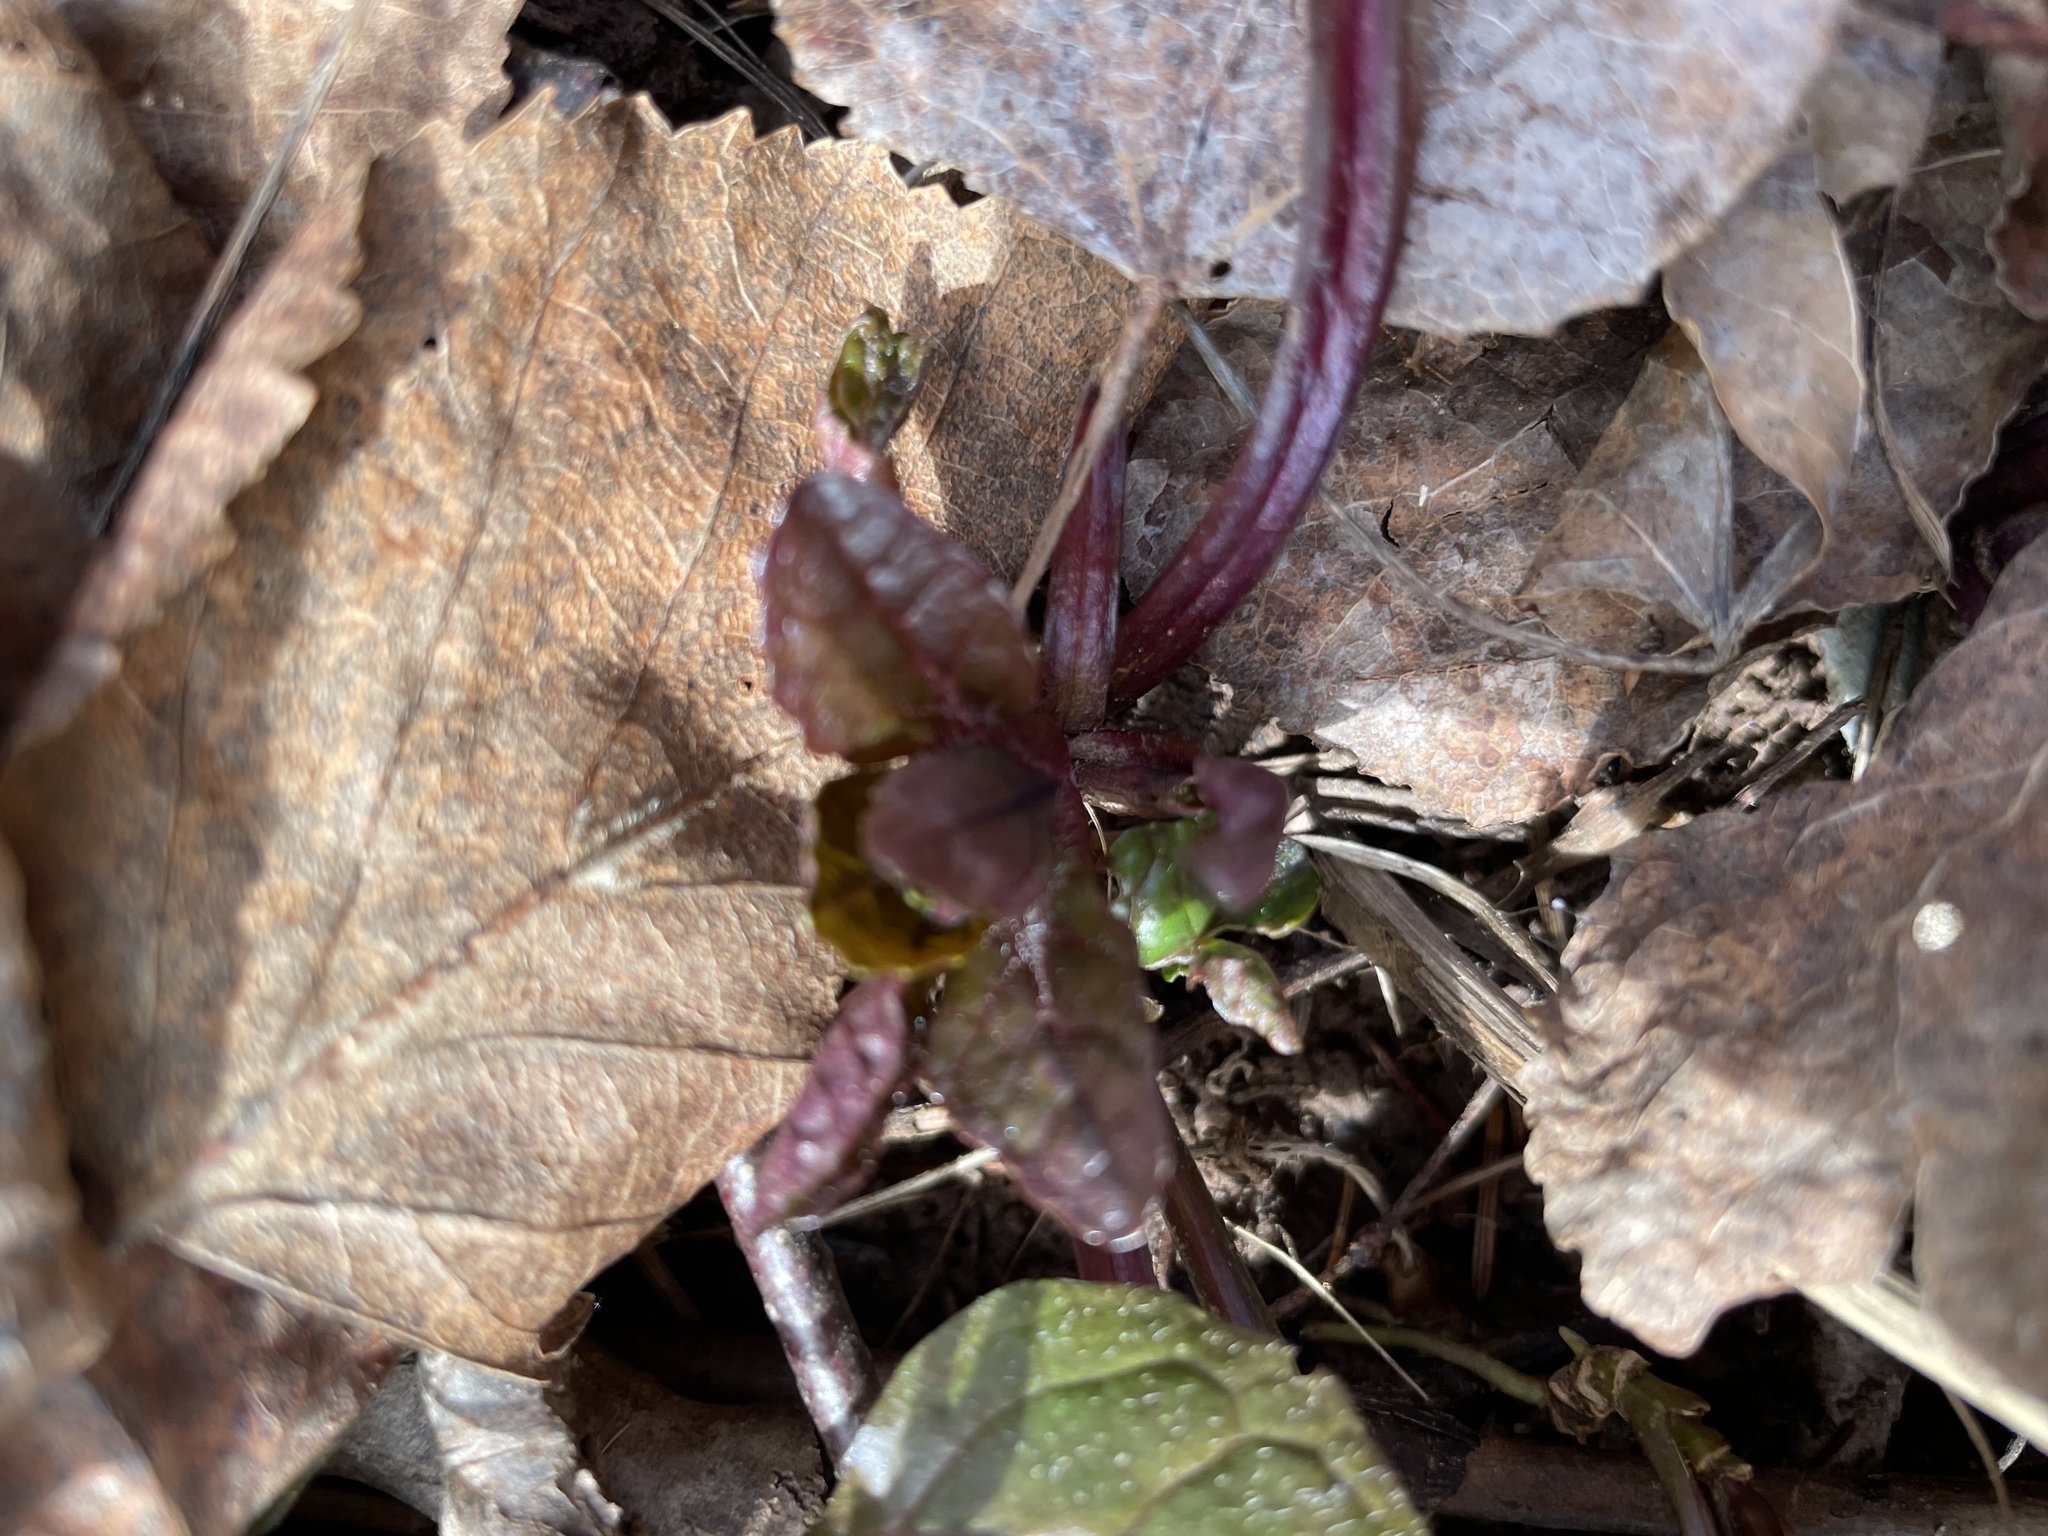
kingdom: Plantae
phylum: Tracheophyta
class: Magnoliopsida
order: Lamiales
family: Lamiaceae
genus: Ajuga
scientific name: Ajuga reptans
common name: Bugle
